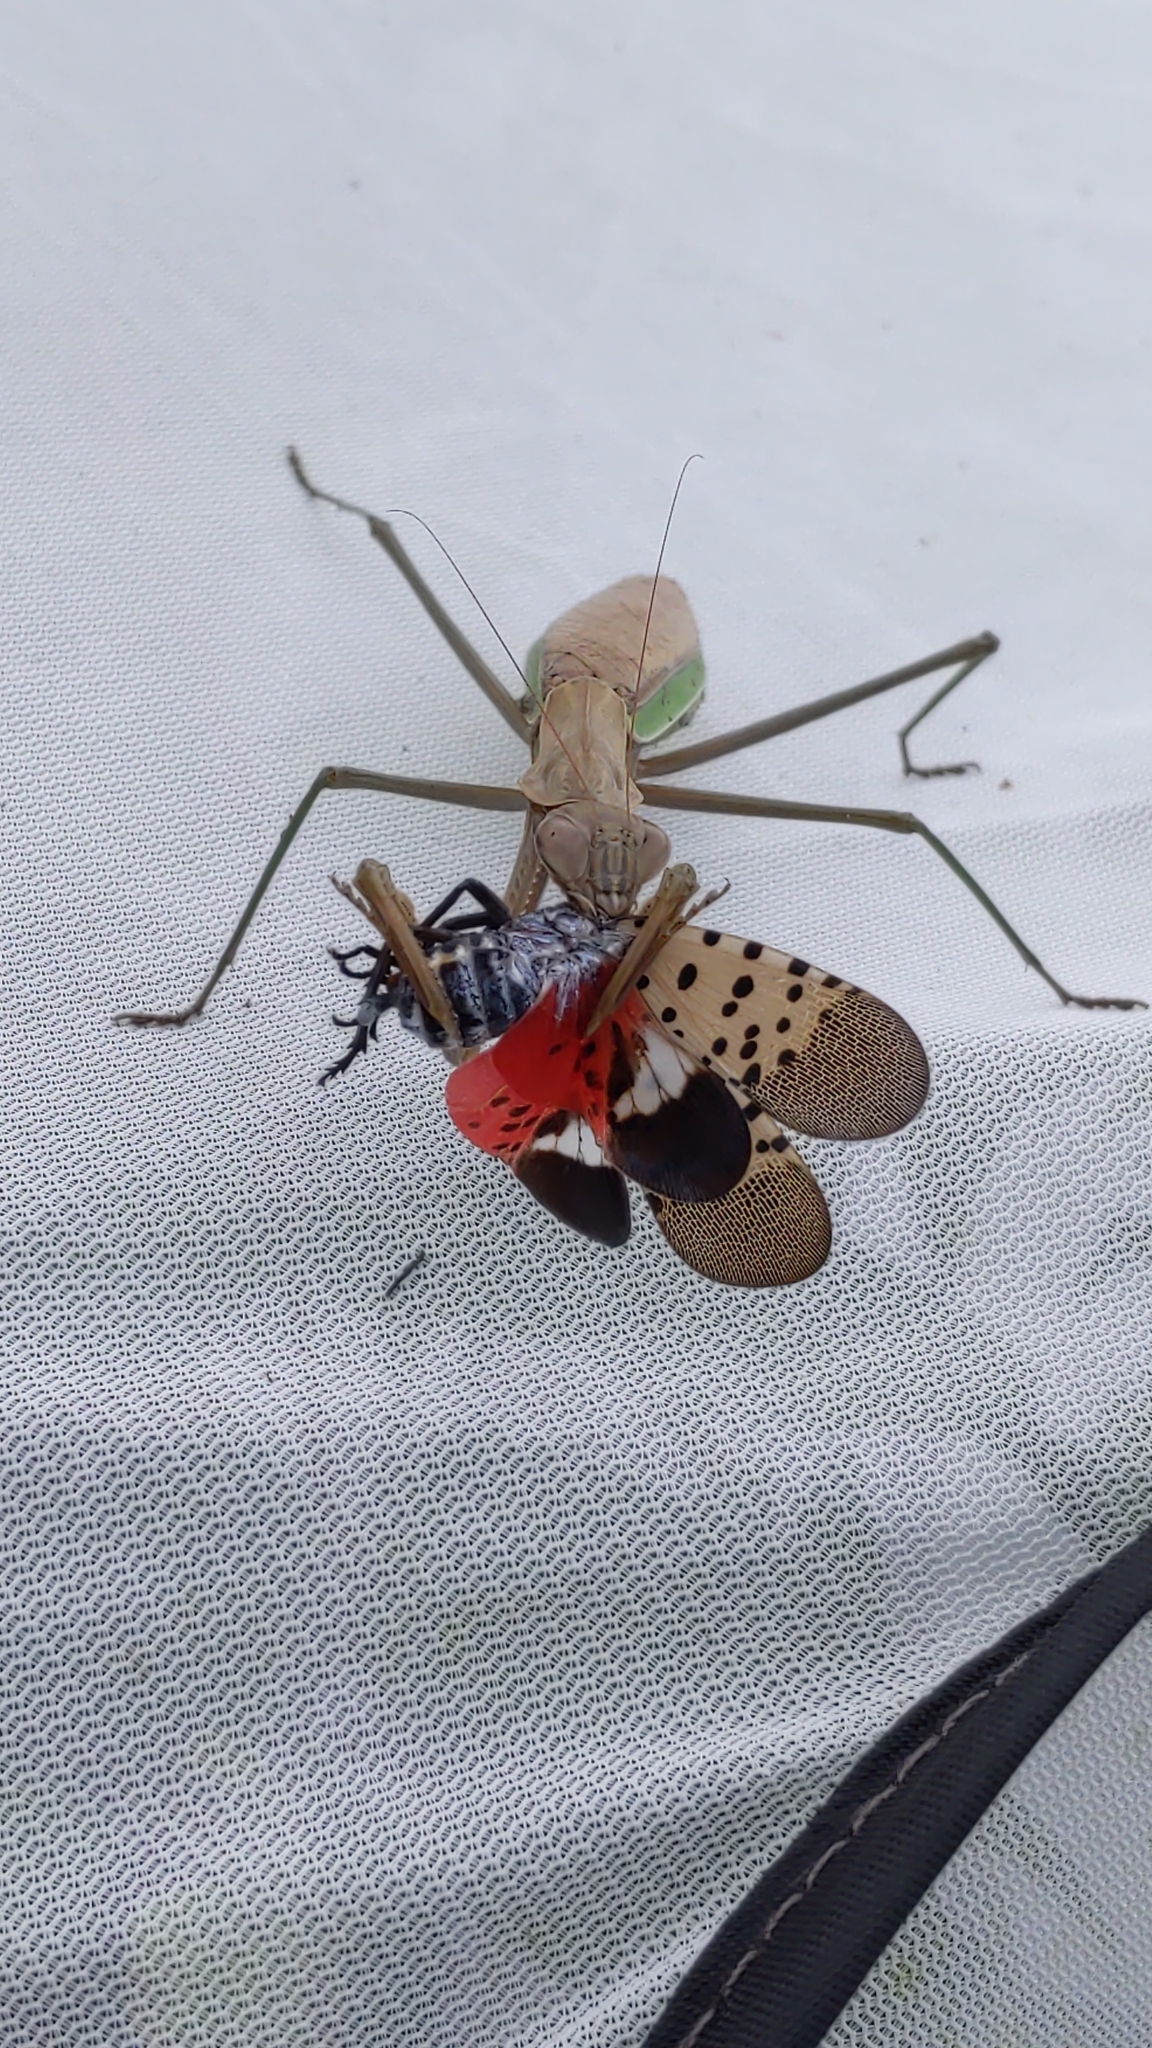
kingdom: Animalia
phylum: Arthropoda
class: Insecta
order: Mantodea
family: Mantidae
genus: Tenodera
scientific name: Tenodera sinensis
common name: Chinese mantis
